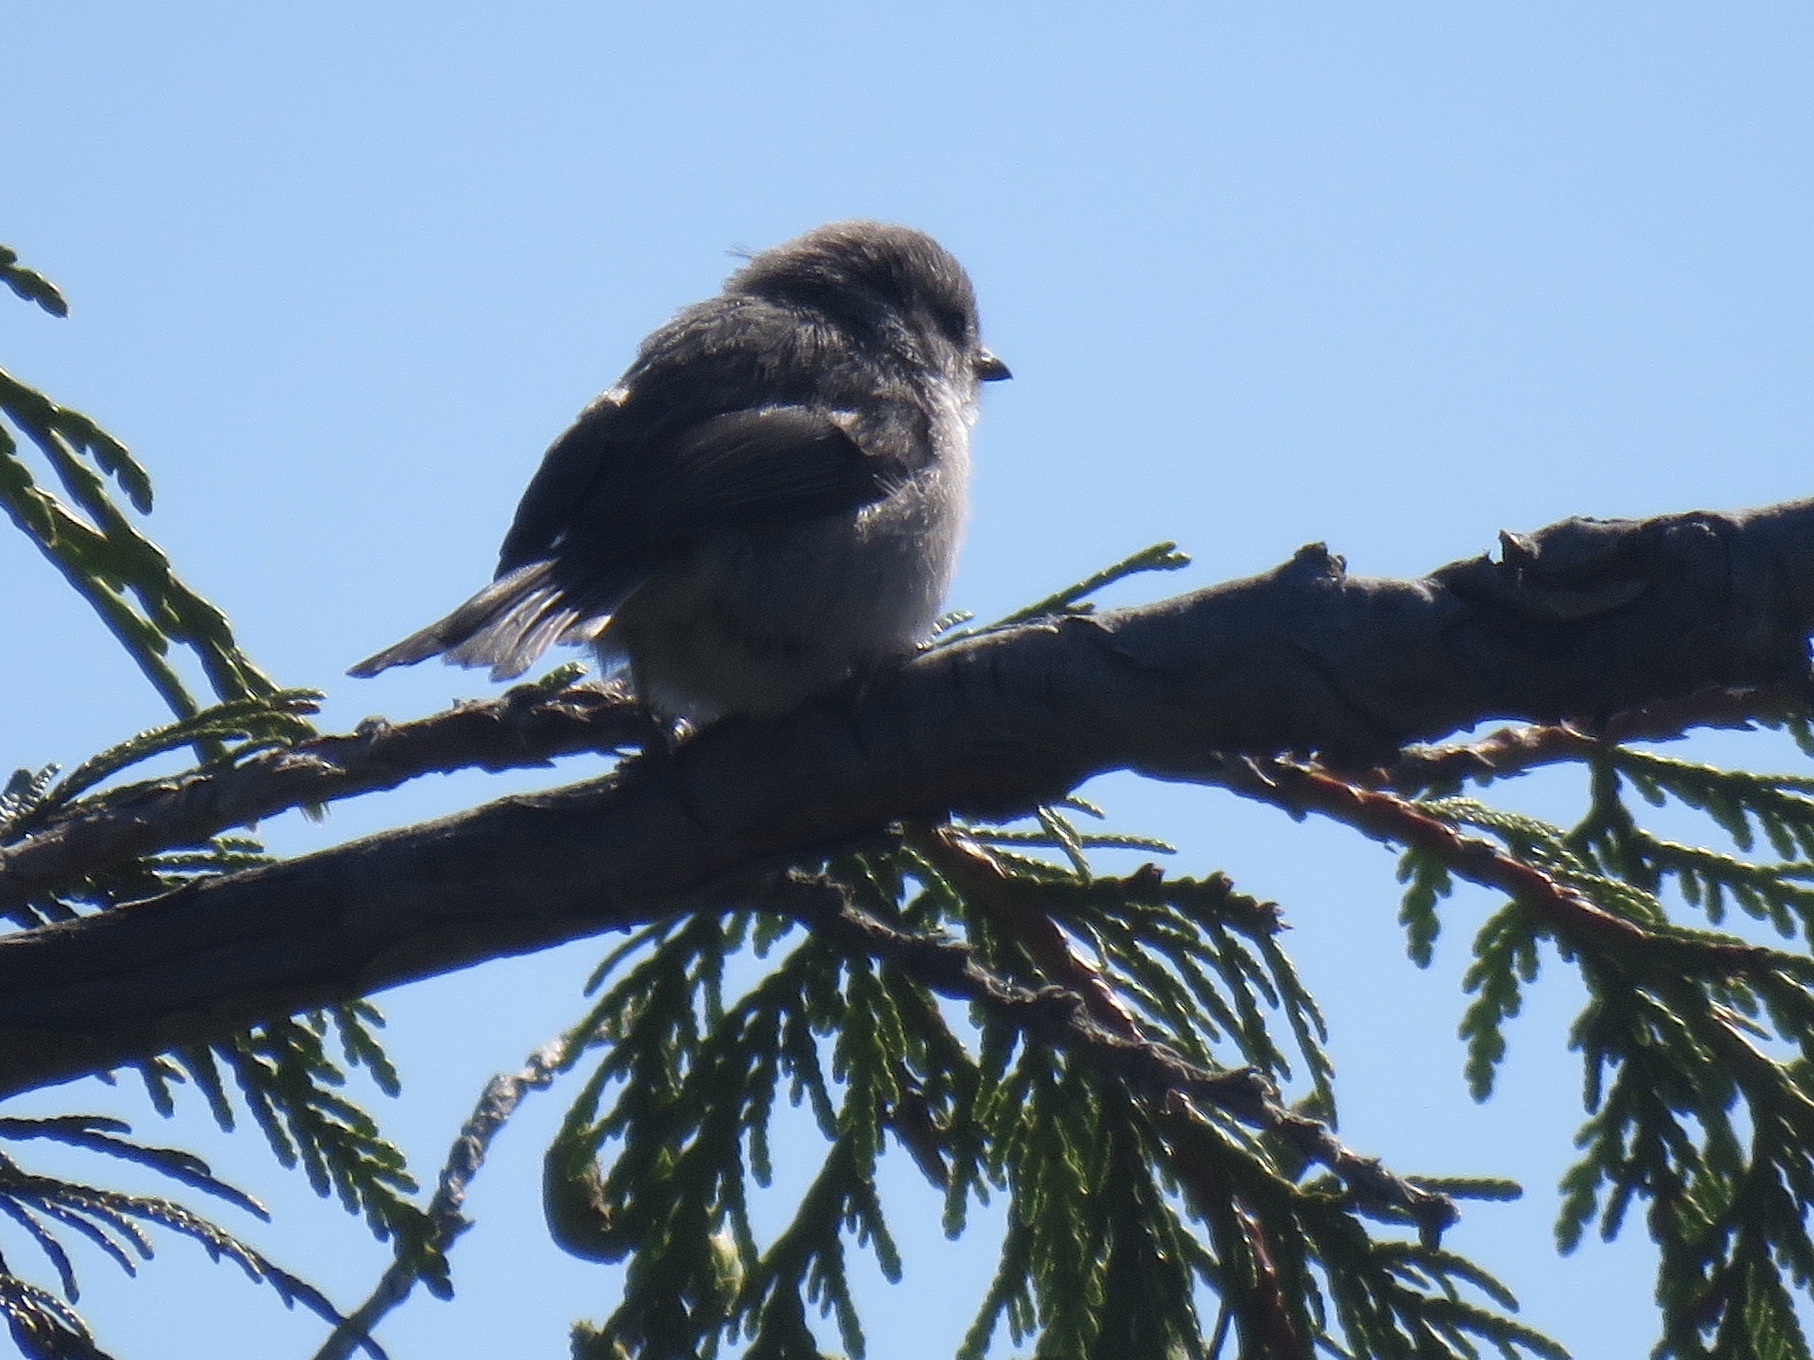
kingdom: Animalia
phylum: Chordata
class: Aves
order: Passeriformes
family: Aegithalidae
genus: Psaltriparus
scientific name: Psaltriparus minimus
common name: American bushtit
